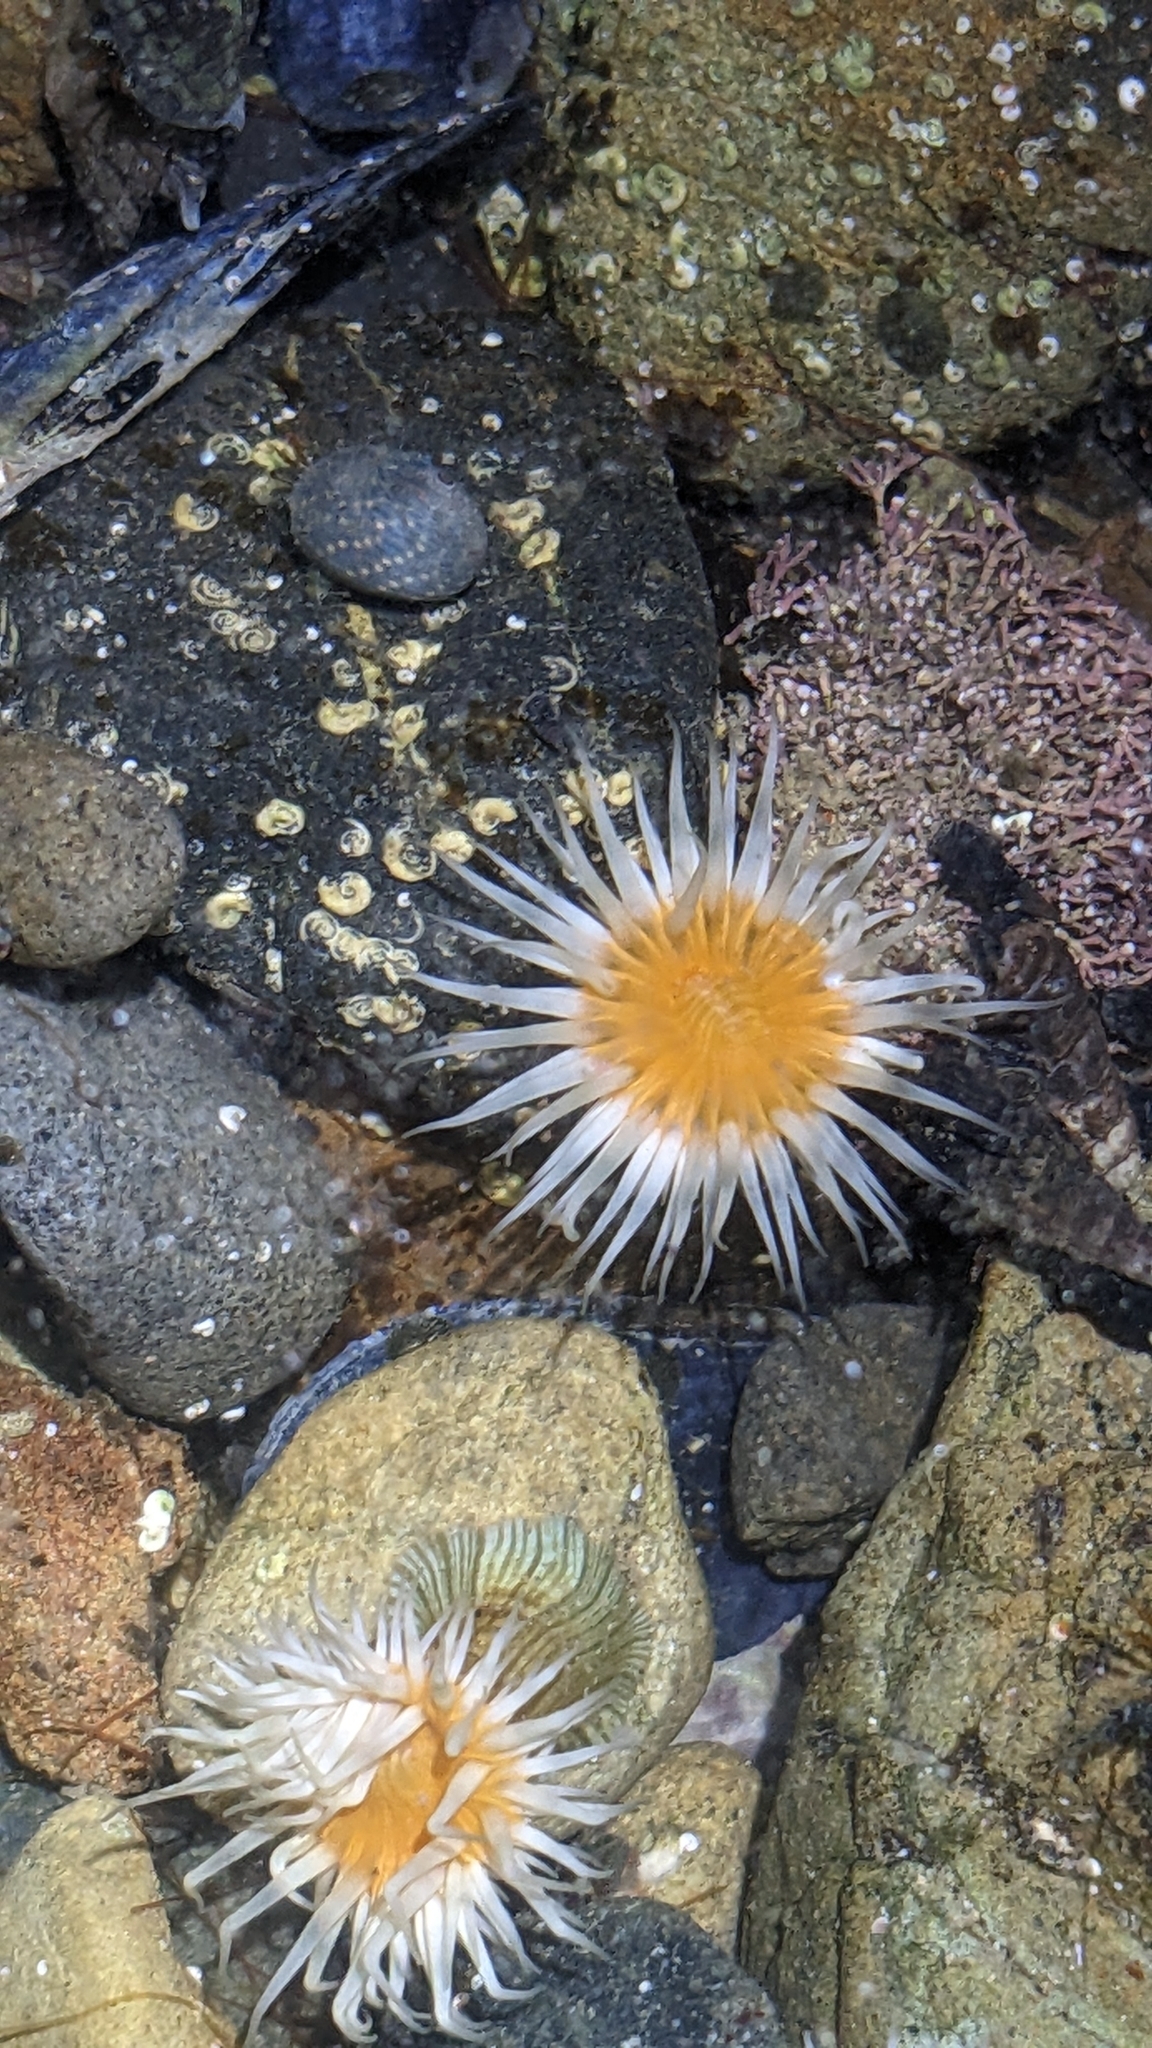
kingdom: Animalia
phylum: Cnidaria
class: Anthozoa
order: Actiniaria
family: Sagartiidae
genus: Anthothoe
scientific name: Anthothoe albocincta
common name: Orange striped anemone
